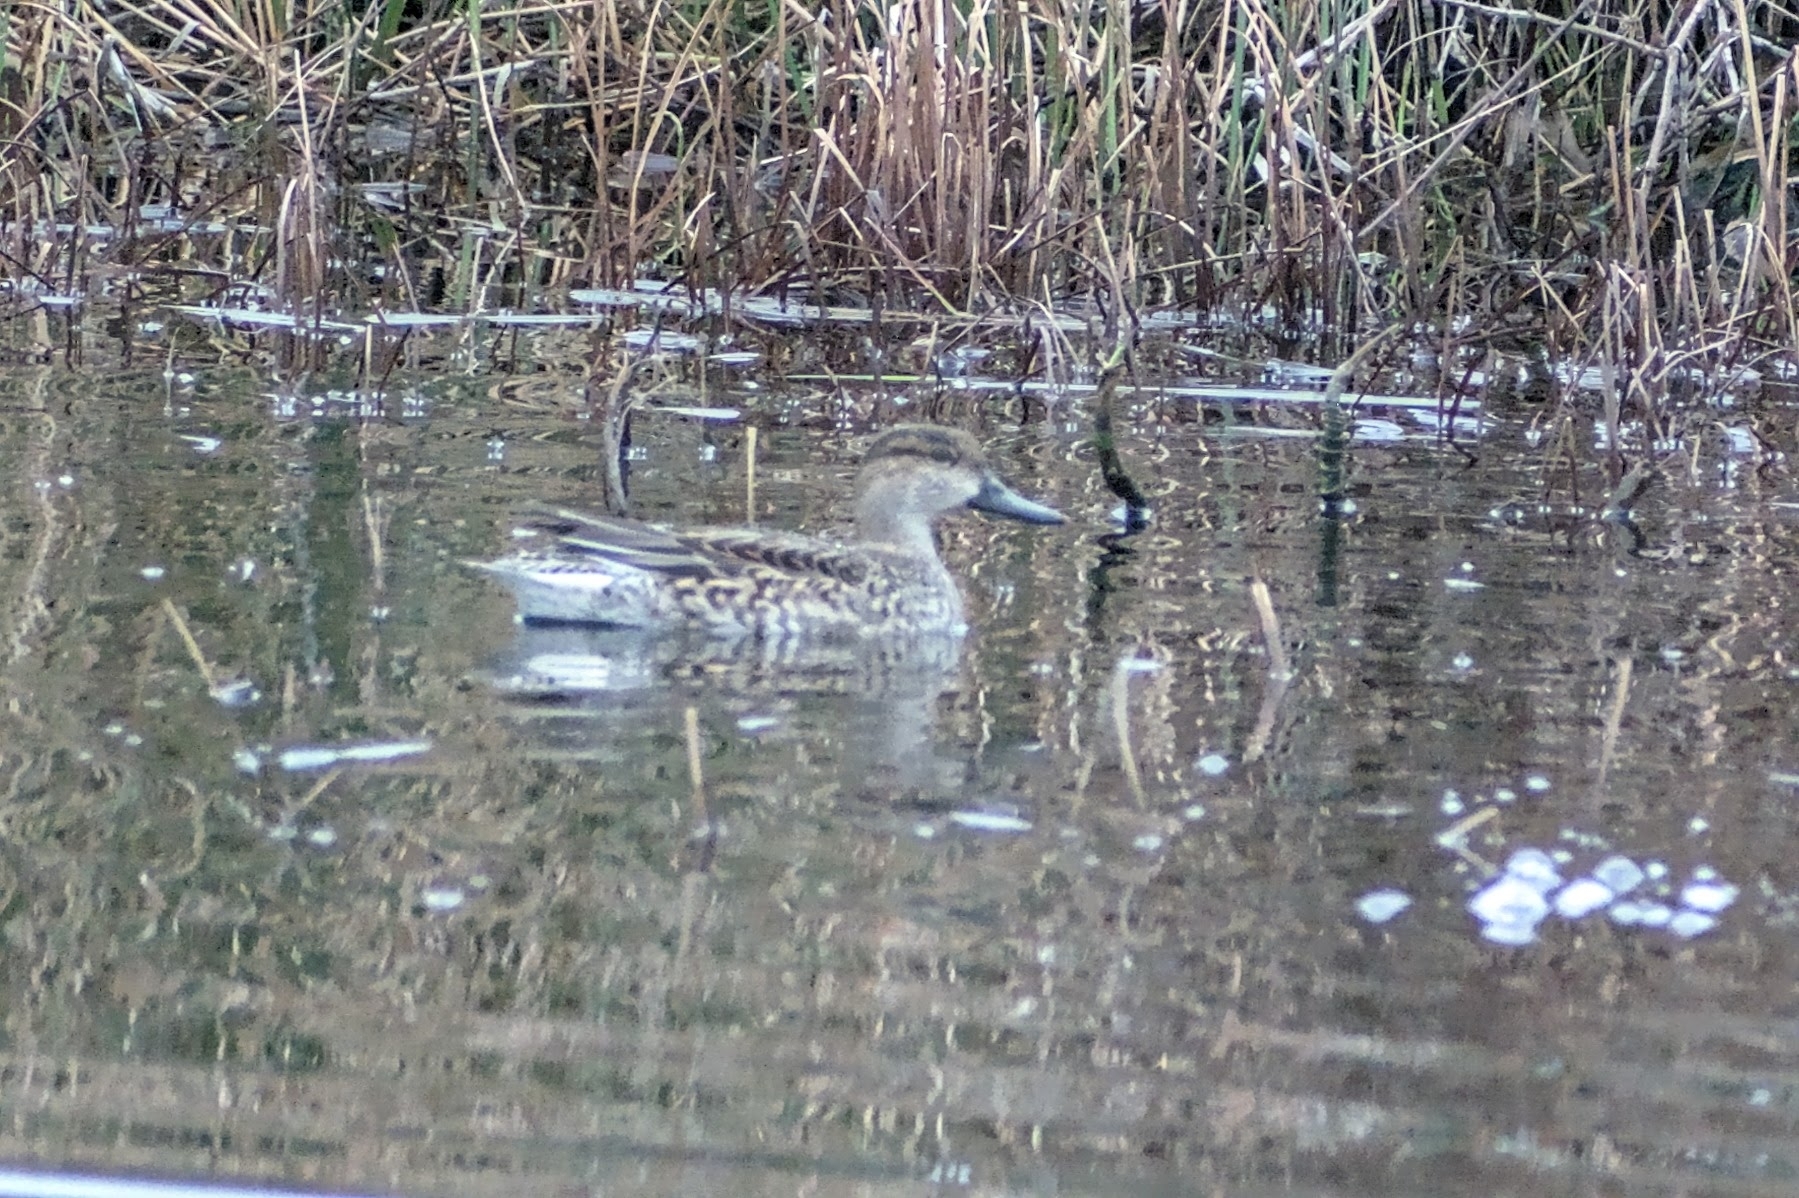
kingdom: Animalia
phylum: Chordata
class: Aves
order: Anseriformes
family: Anatidae
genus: Anas
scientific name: Anas crecca
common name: Eurasian teal
